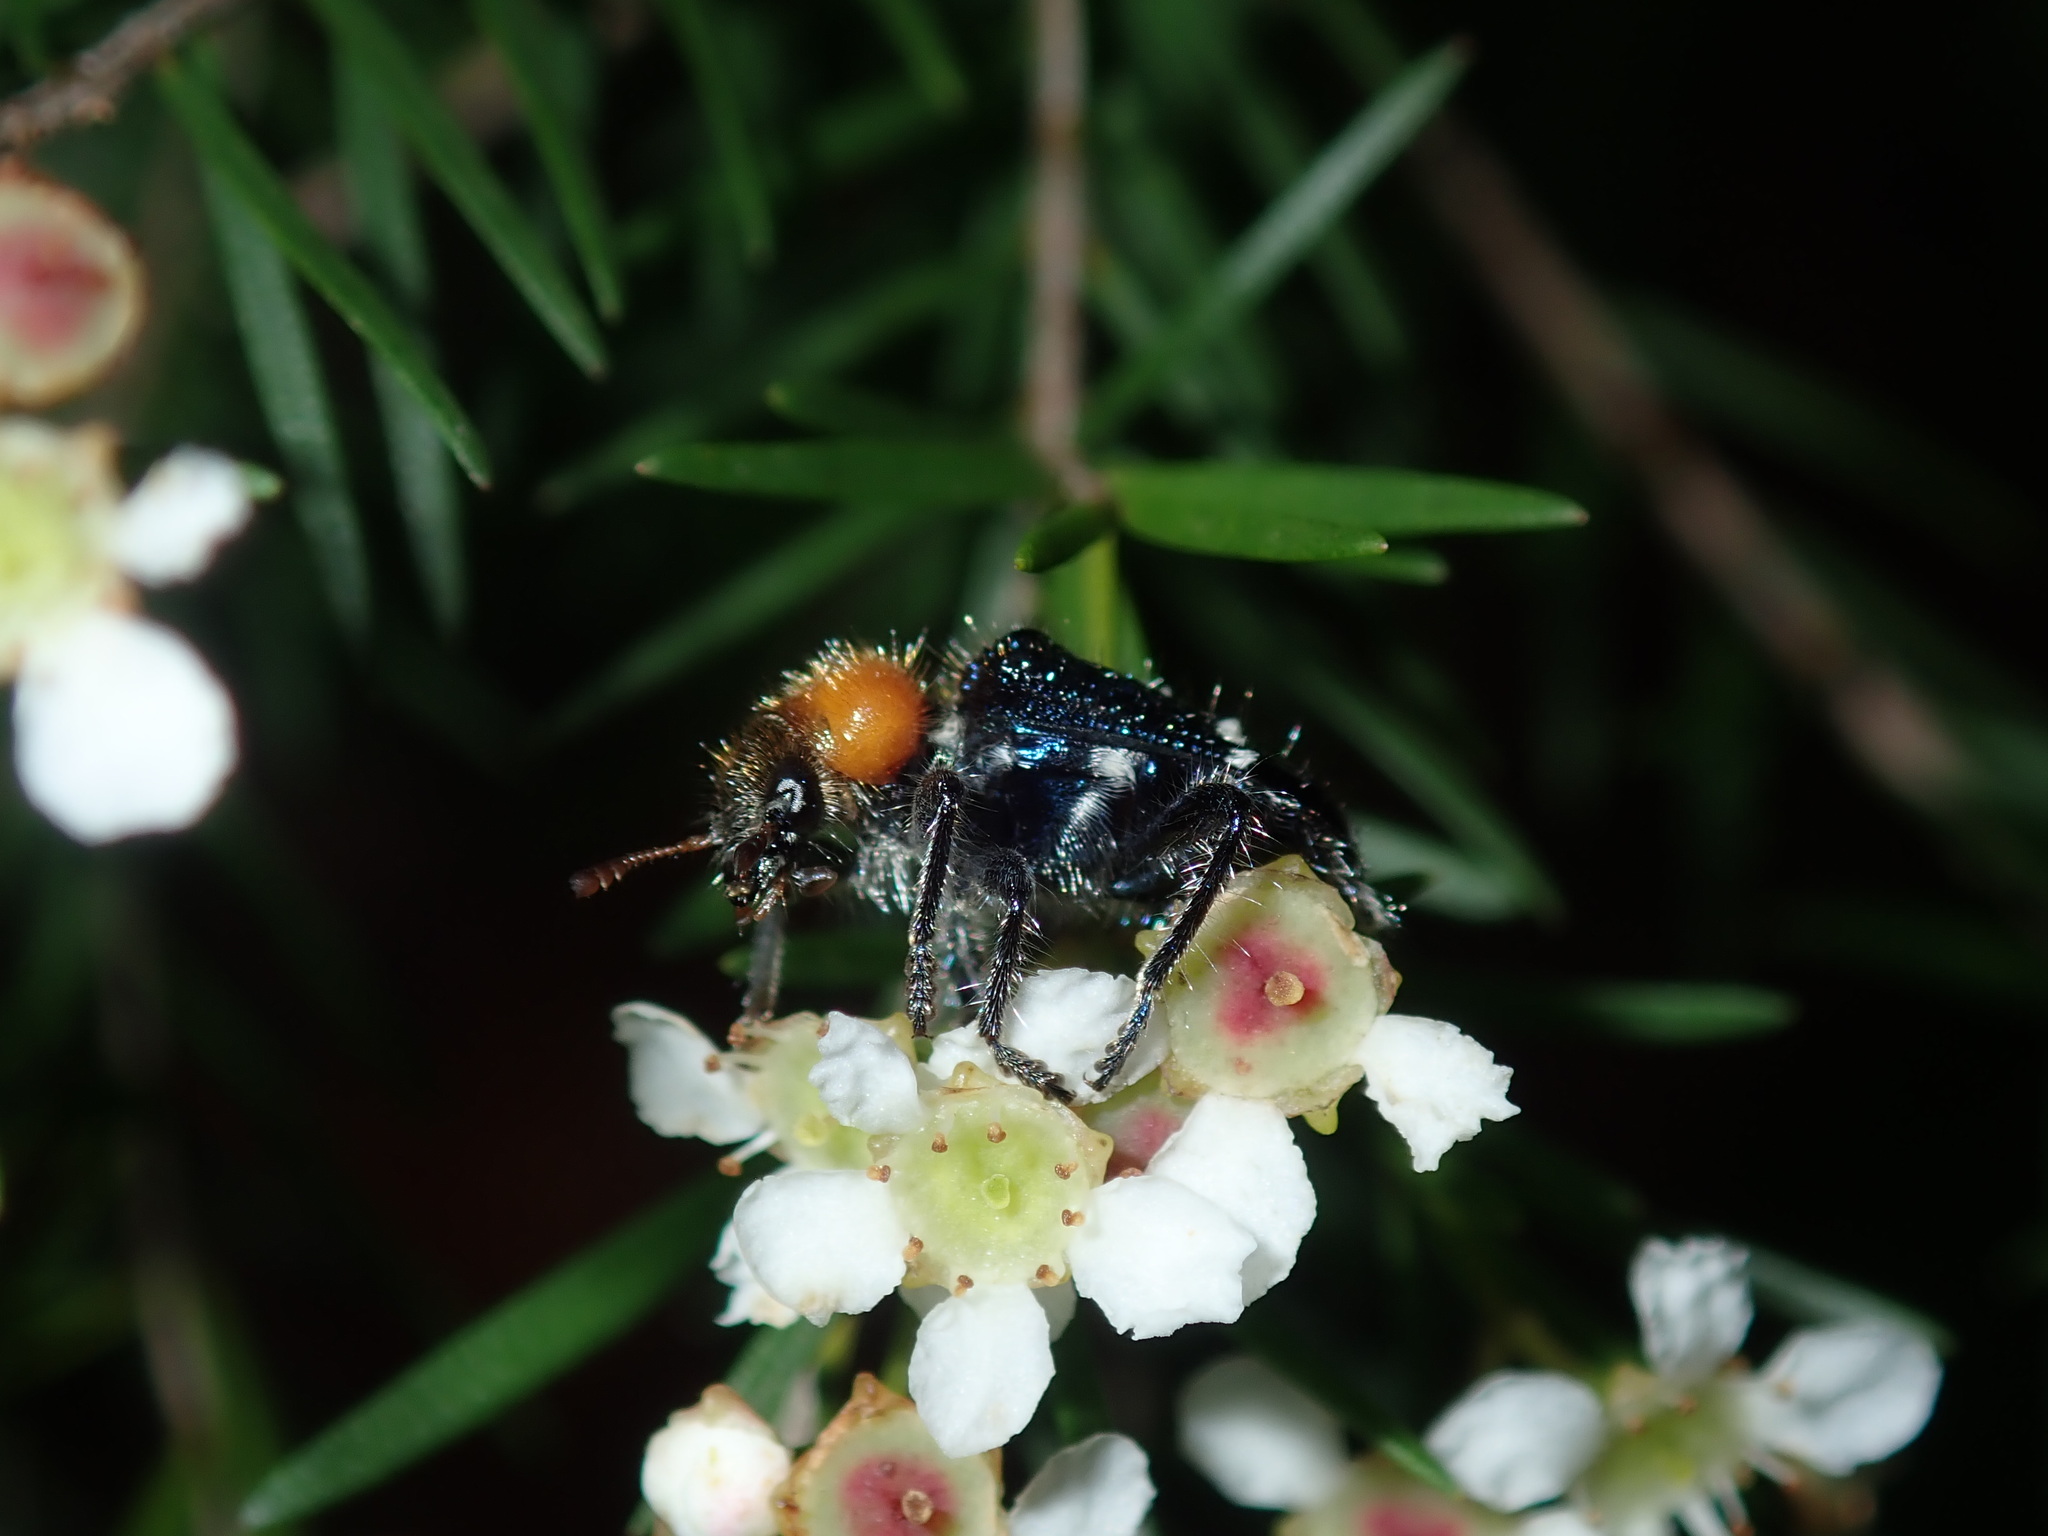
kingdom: Animalia
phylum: Arthropoda
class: Insecta
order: Coleoptera
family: Cleridae
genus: Zenithicola
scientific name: Zenithicola
